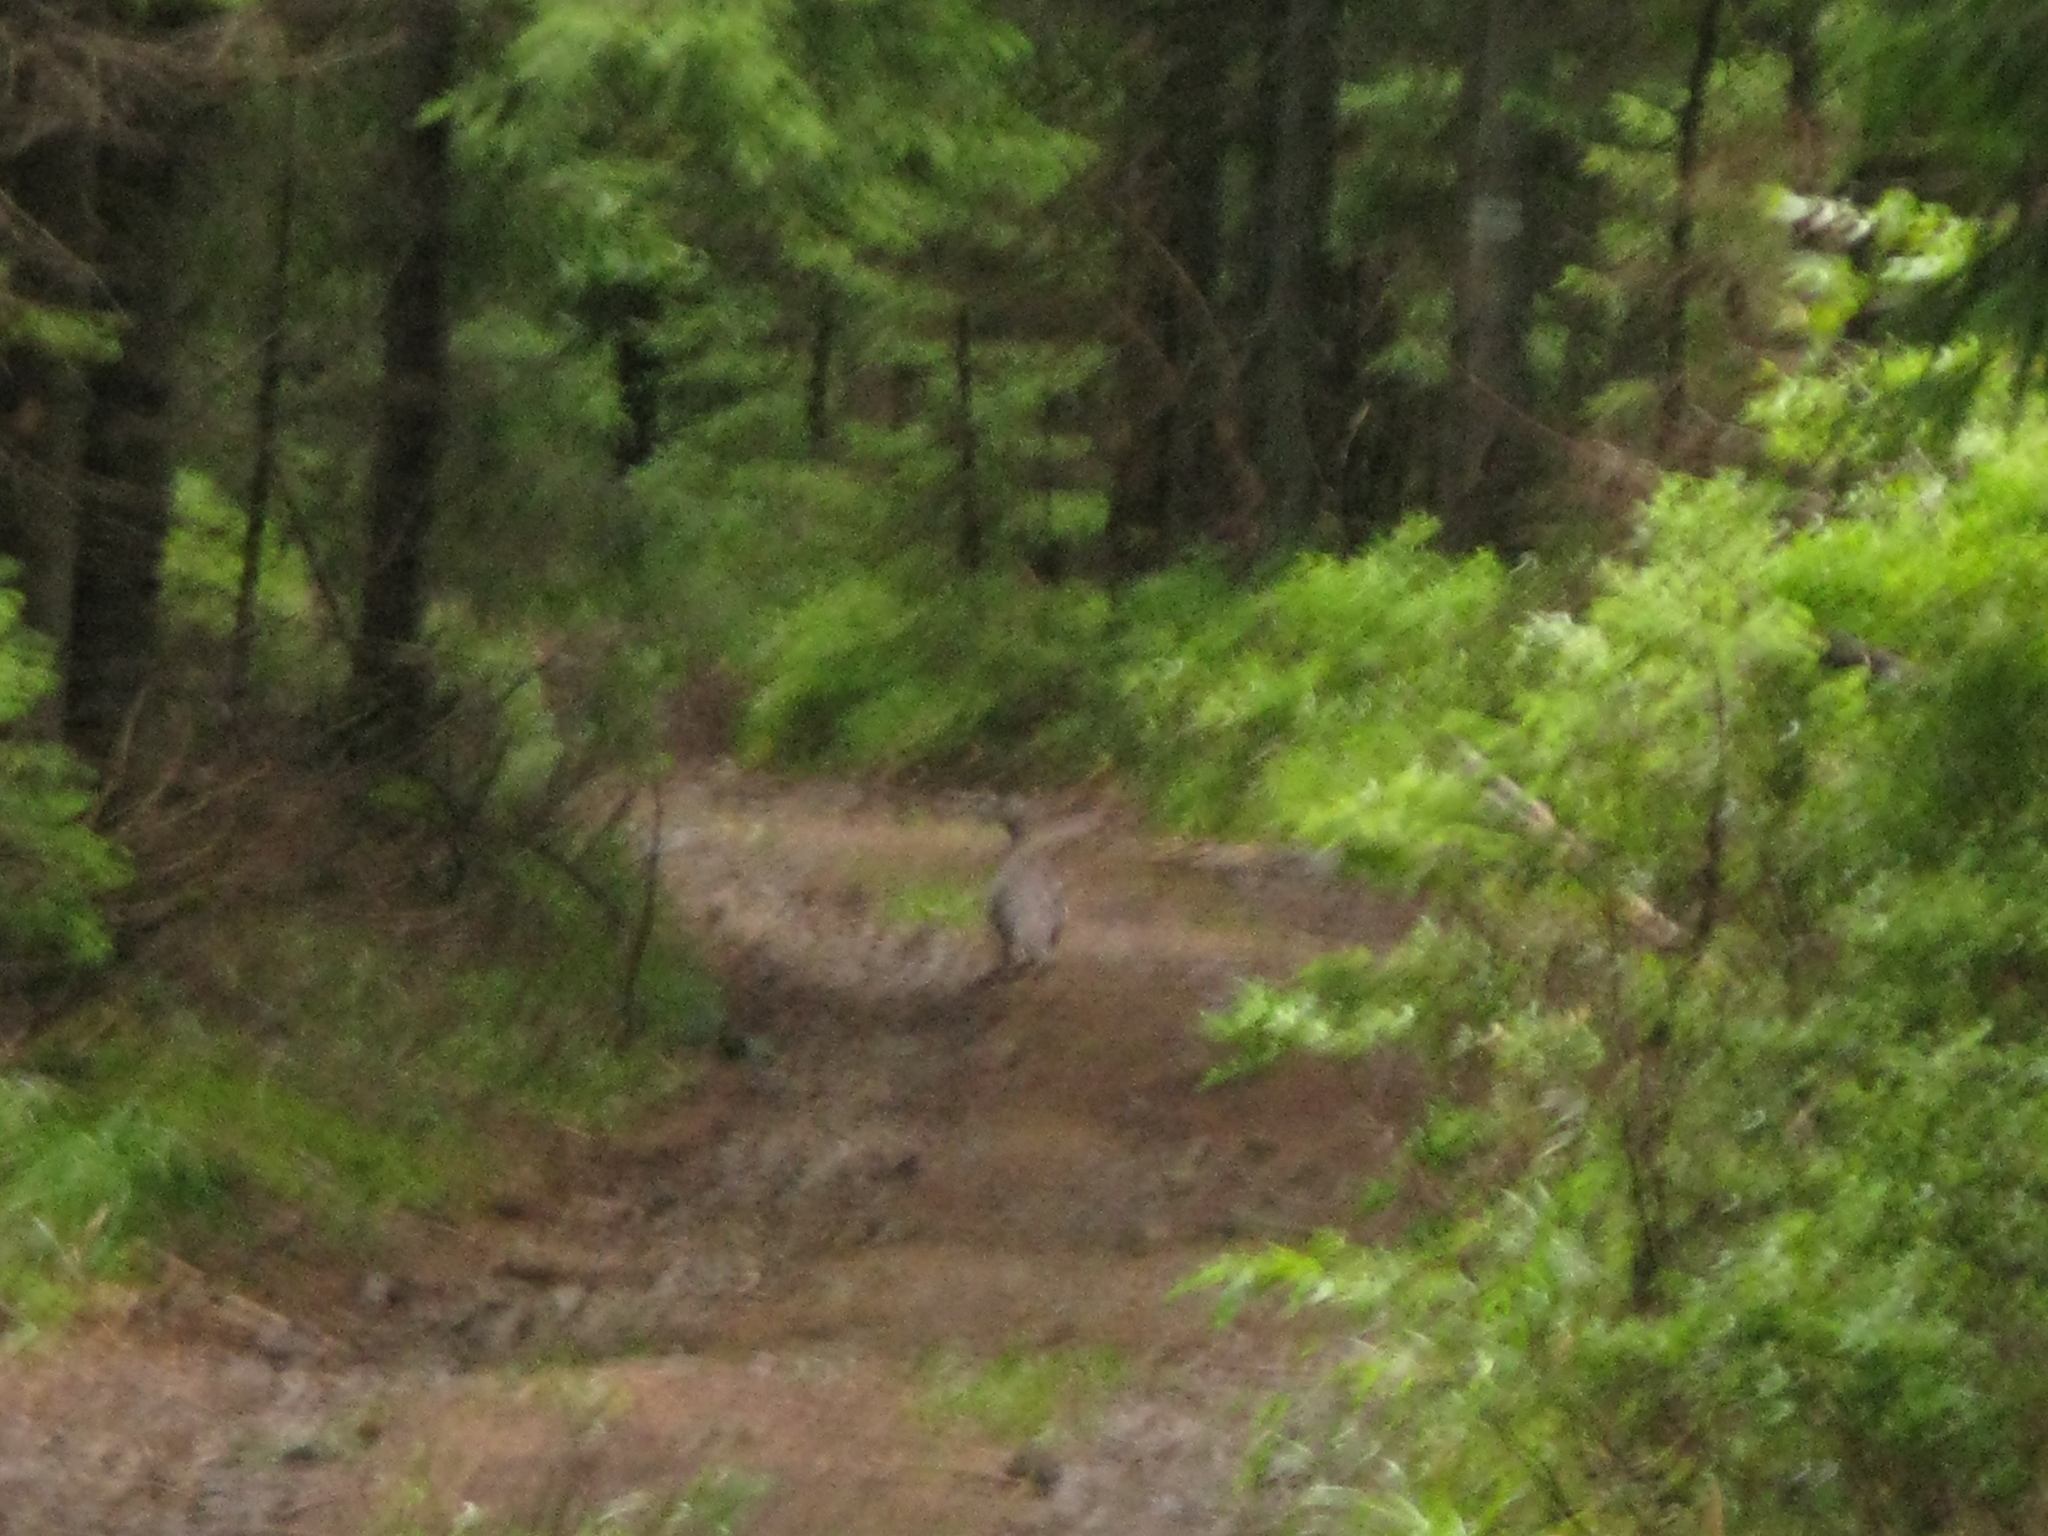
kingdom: Animalia
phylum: Chordata
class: Aves
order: Galliformes
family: Phasianidae
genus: Tetrao
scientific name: Tetrao urogallus
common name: Western capercaillie
